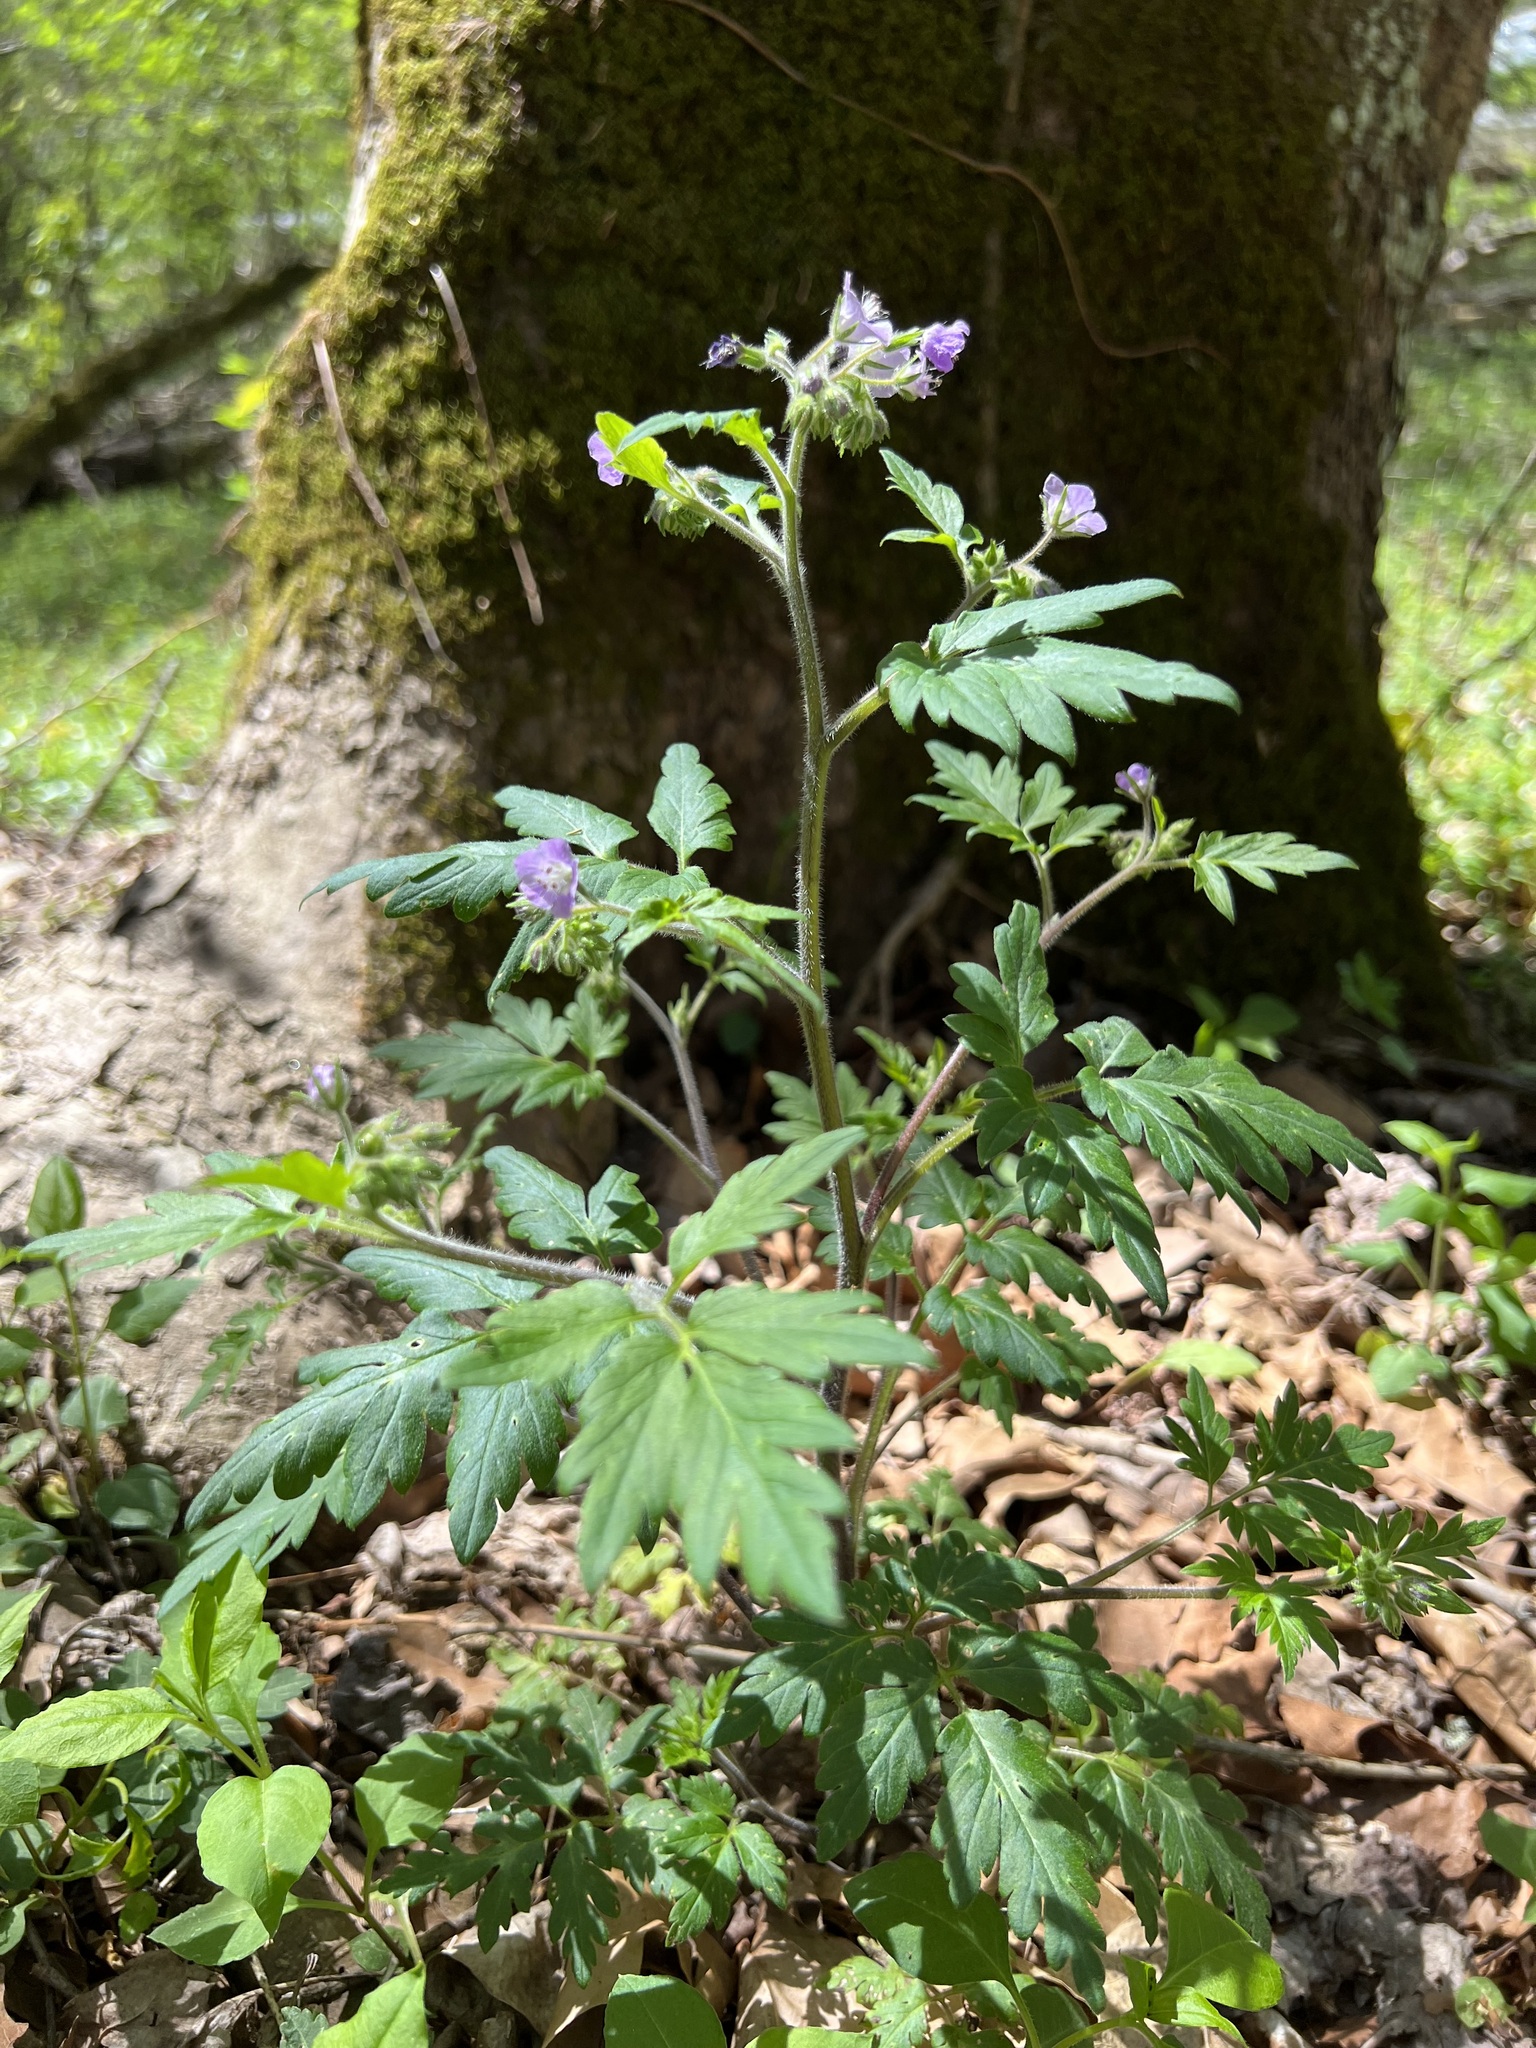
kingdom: Plantae
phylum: Tracheophyta
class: Magnoliopsida
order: Boraginales
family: Hydrophyllaceae
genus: Phacelia
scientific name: Phacelia bipinnatifida
